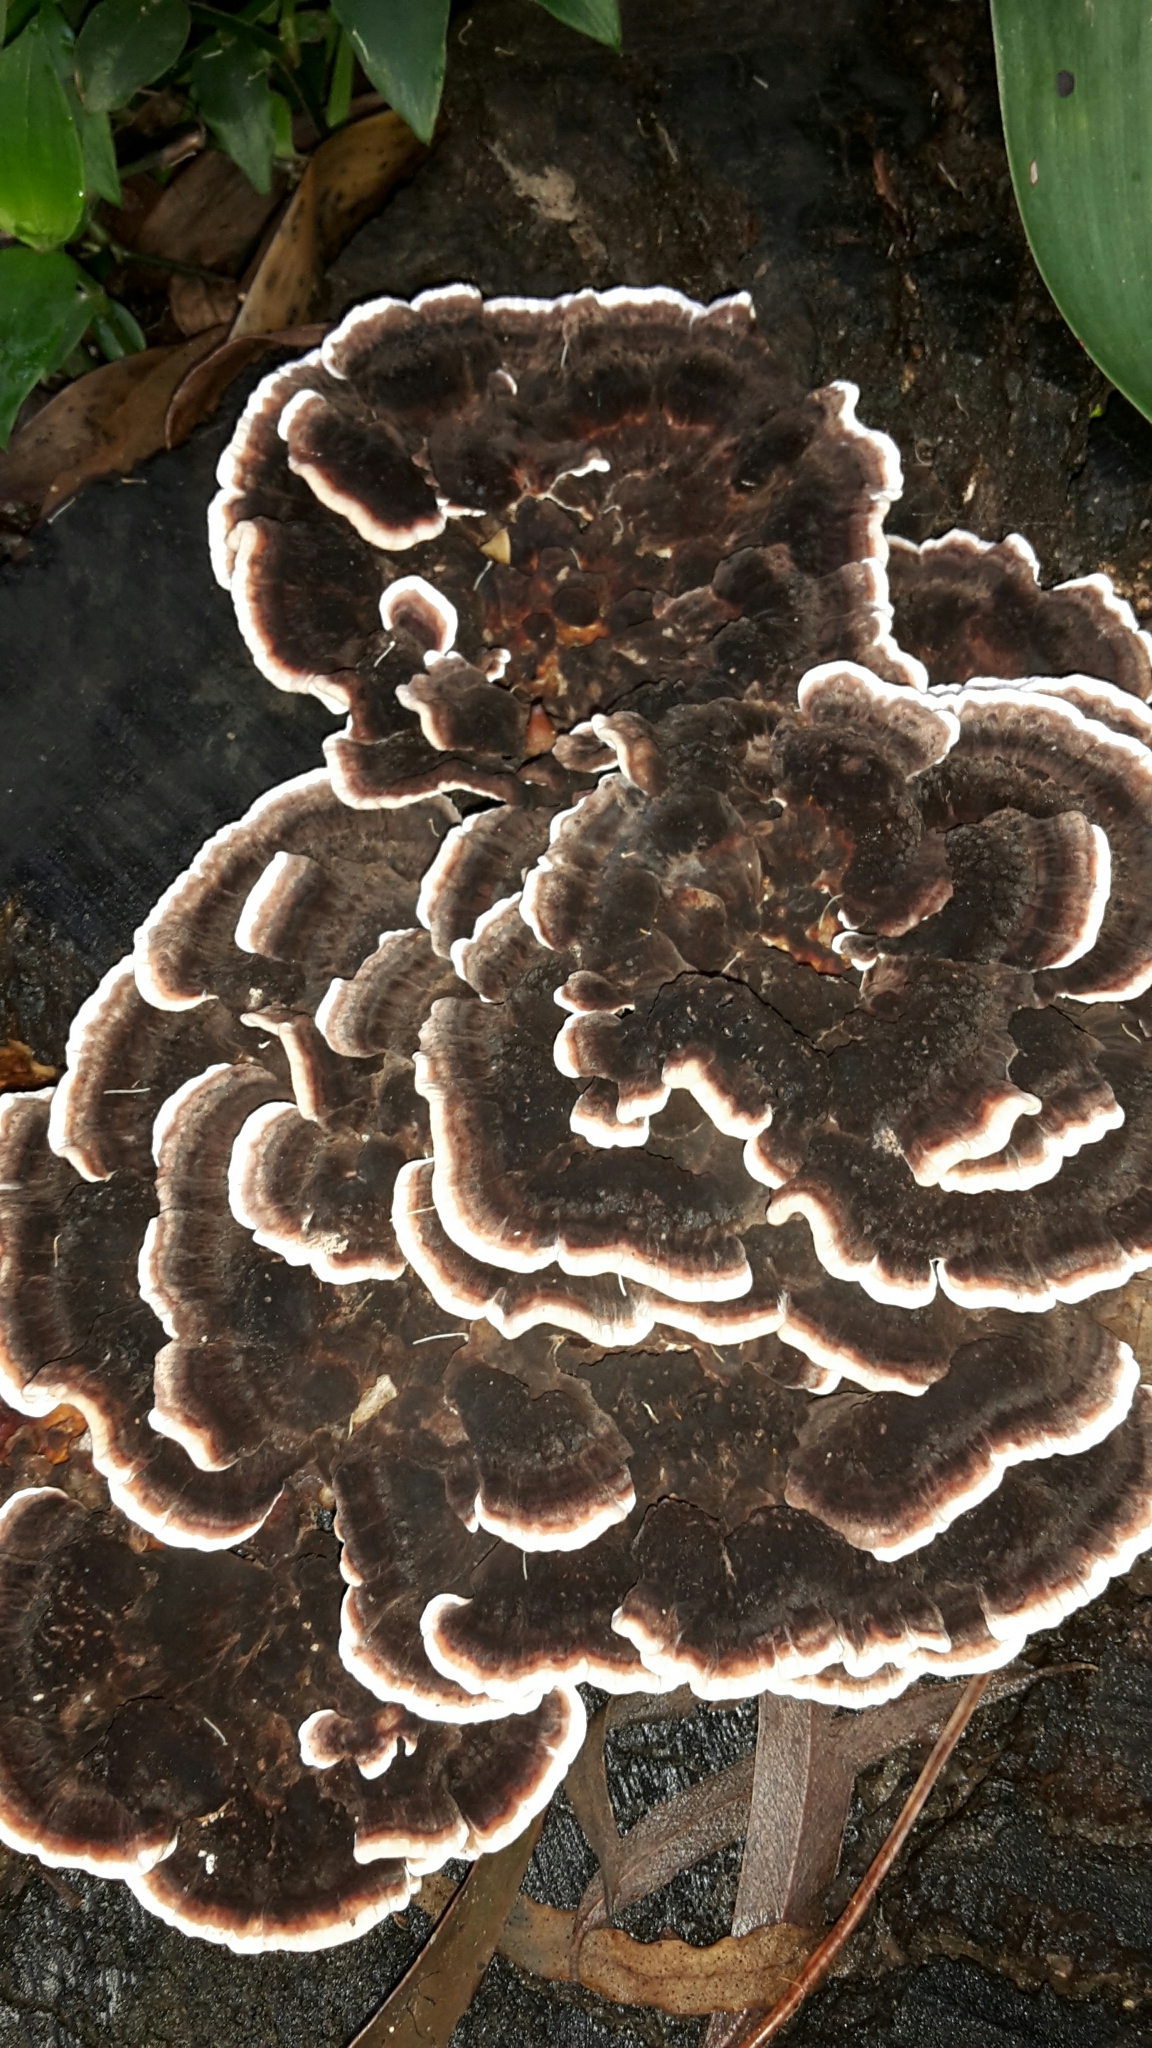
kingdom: Fungi
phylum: Basidiomycota
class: Agaricomycetes
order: Polyporales
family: Polyporaceae
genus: Trametes
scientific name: Trametes versicolor
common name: Turkeytail
